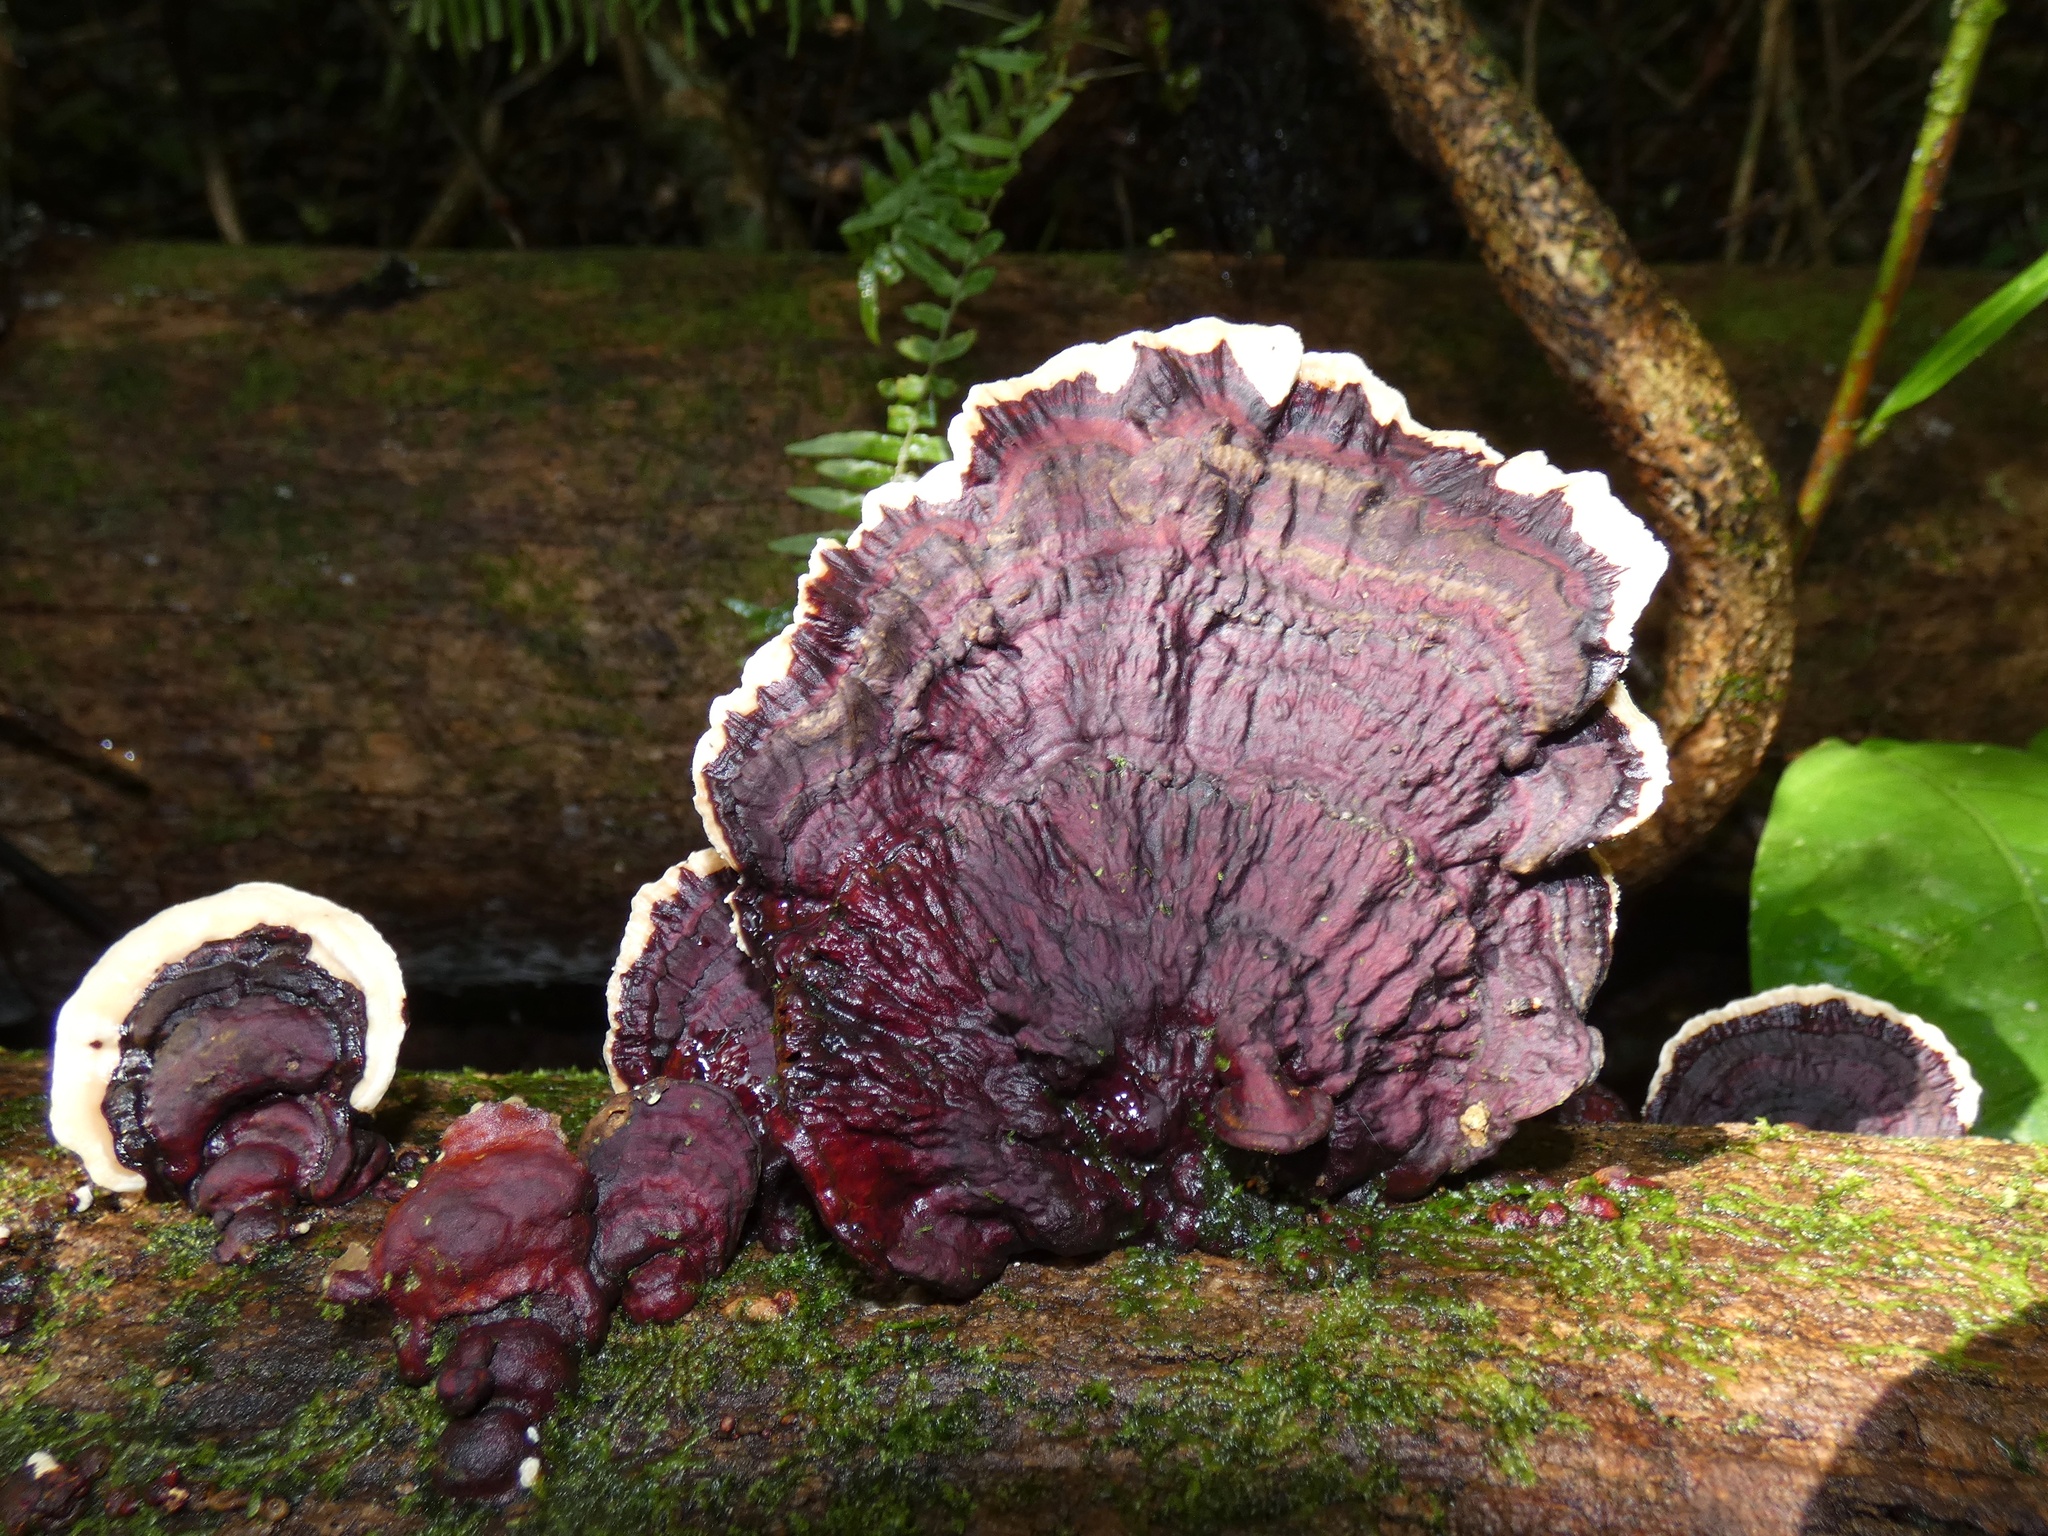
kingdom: Fungi
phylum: Basidiomycota
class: Agaricomycetes
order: Polyporales
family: Polyporaceae
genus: Earliella
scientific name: Earliella scabrosa
